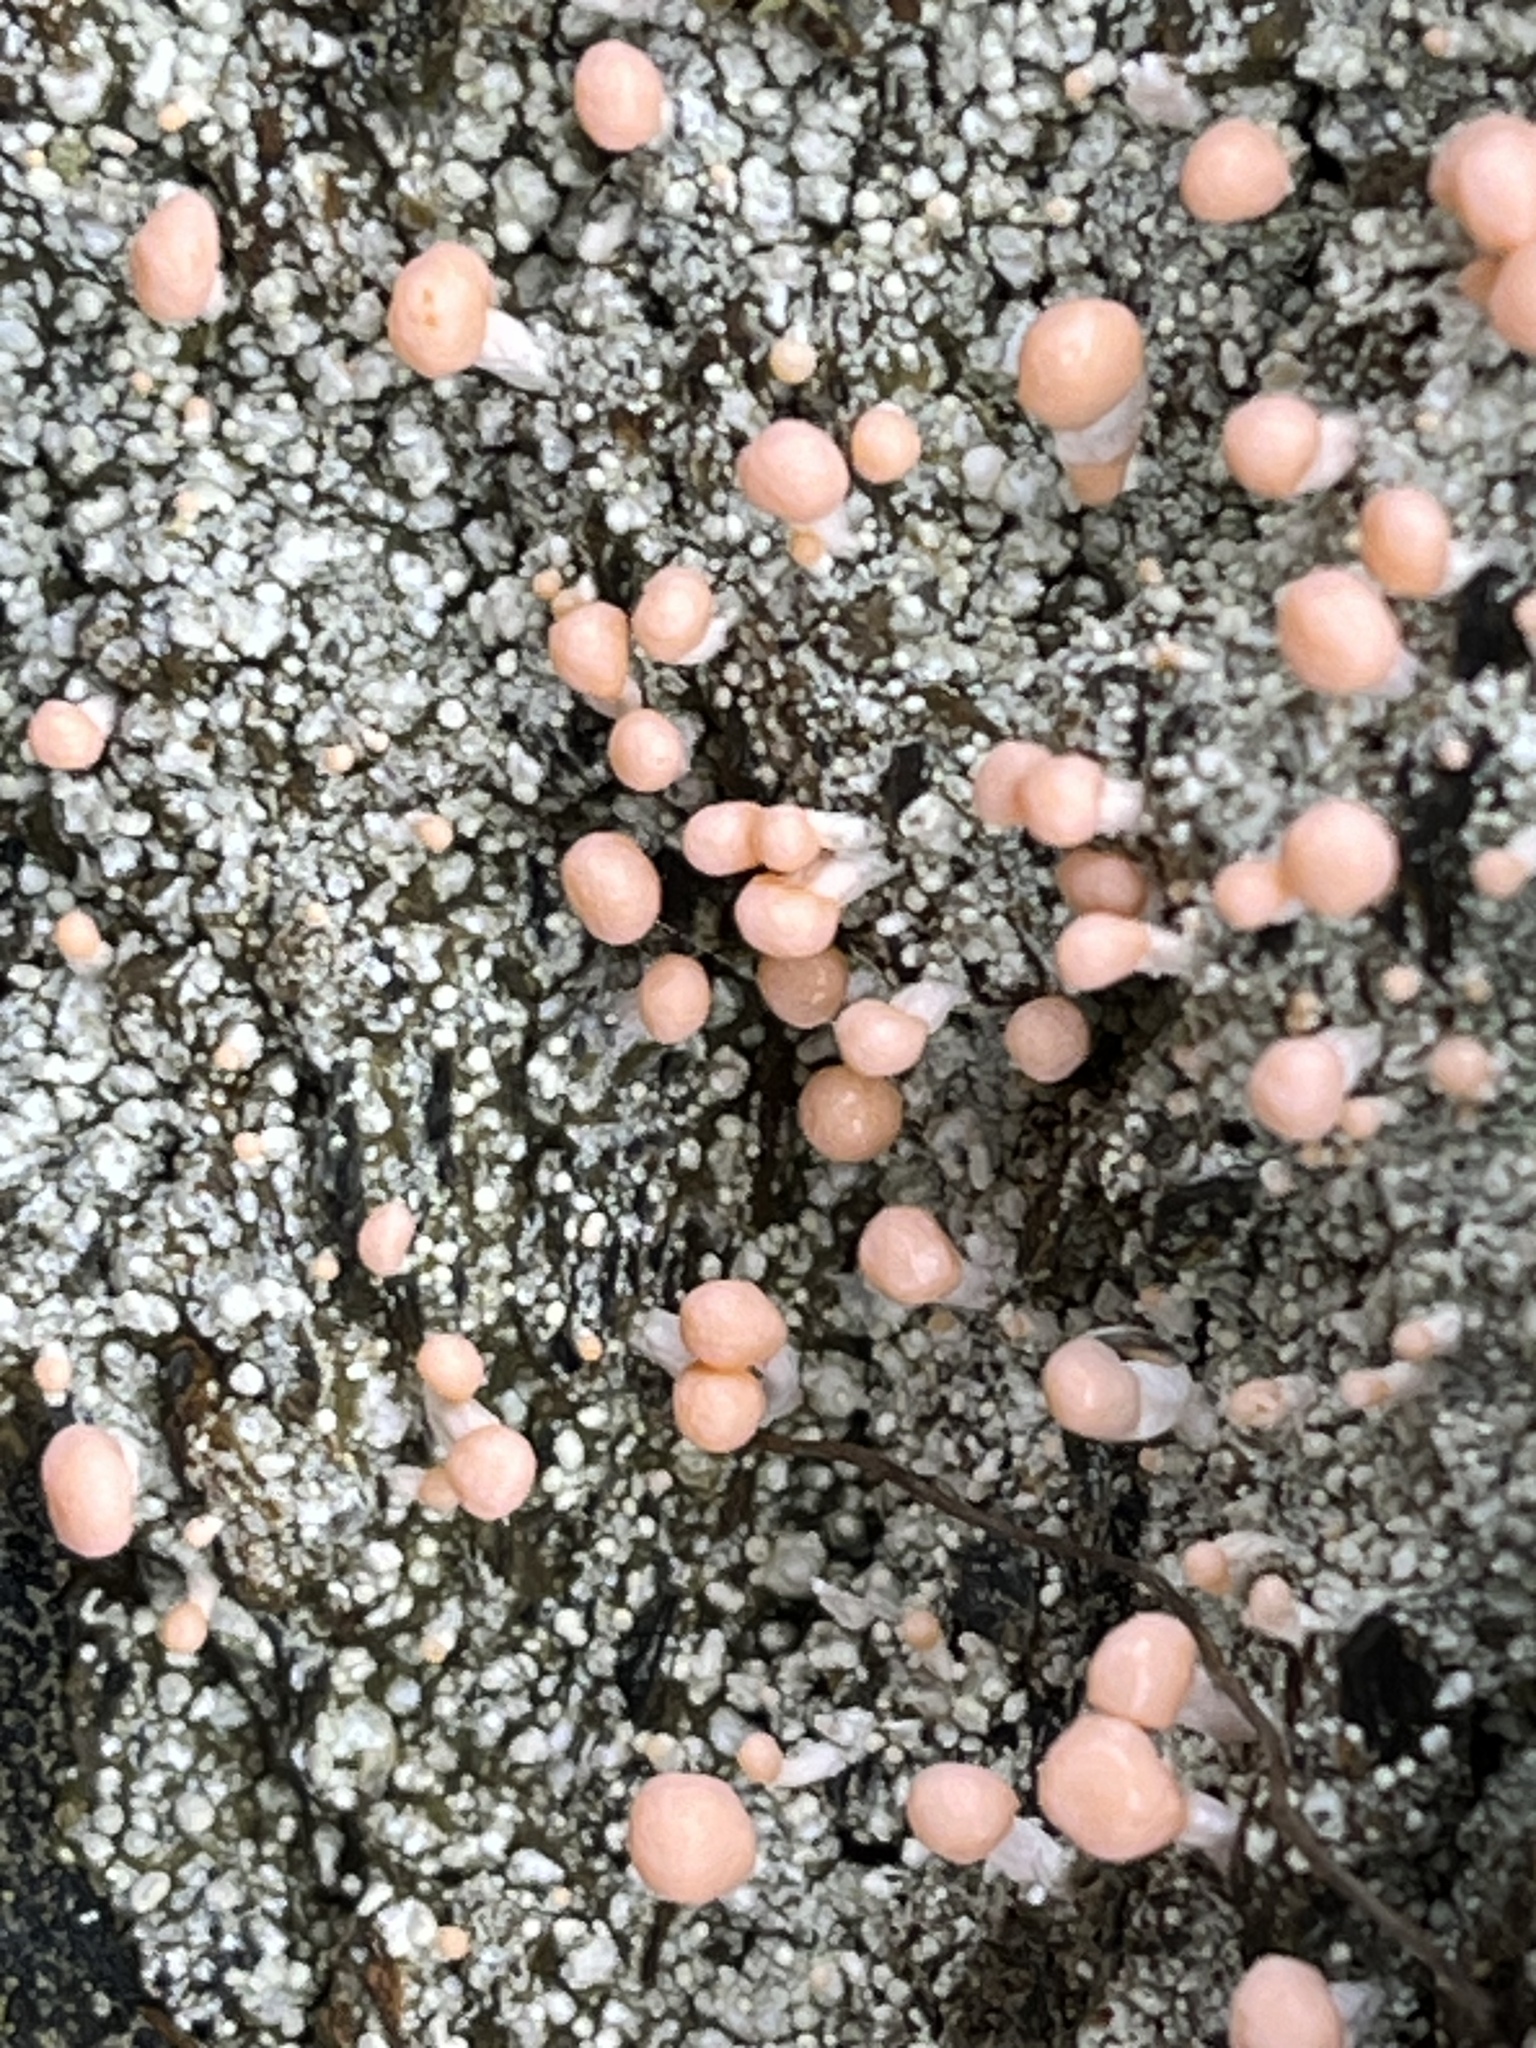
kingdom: Fungi
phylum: Ascomycota
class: Lecanoromycetes
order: Pertusariales
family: Icmadophilaceae
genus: Dibaeis
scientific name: Dibaeis baeomyces
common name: Pink earth lichen
